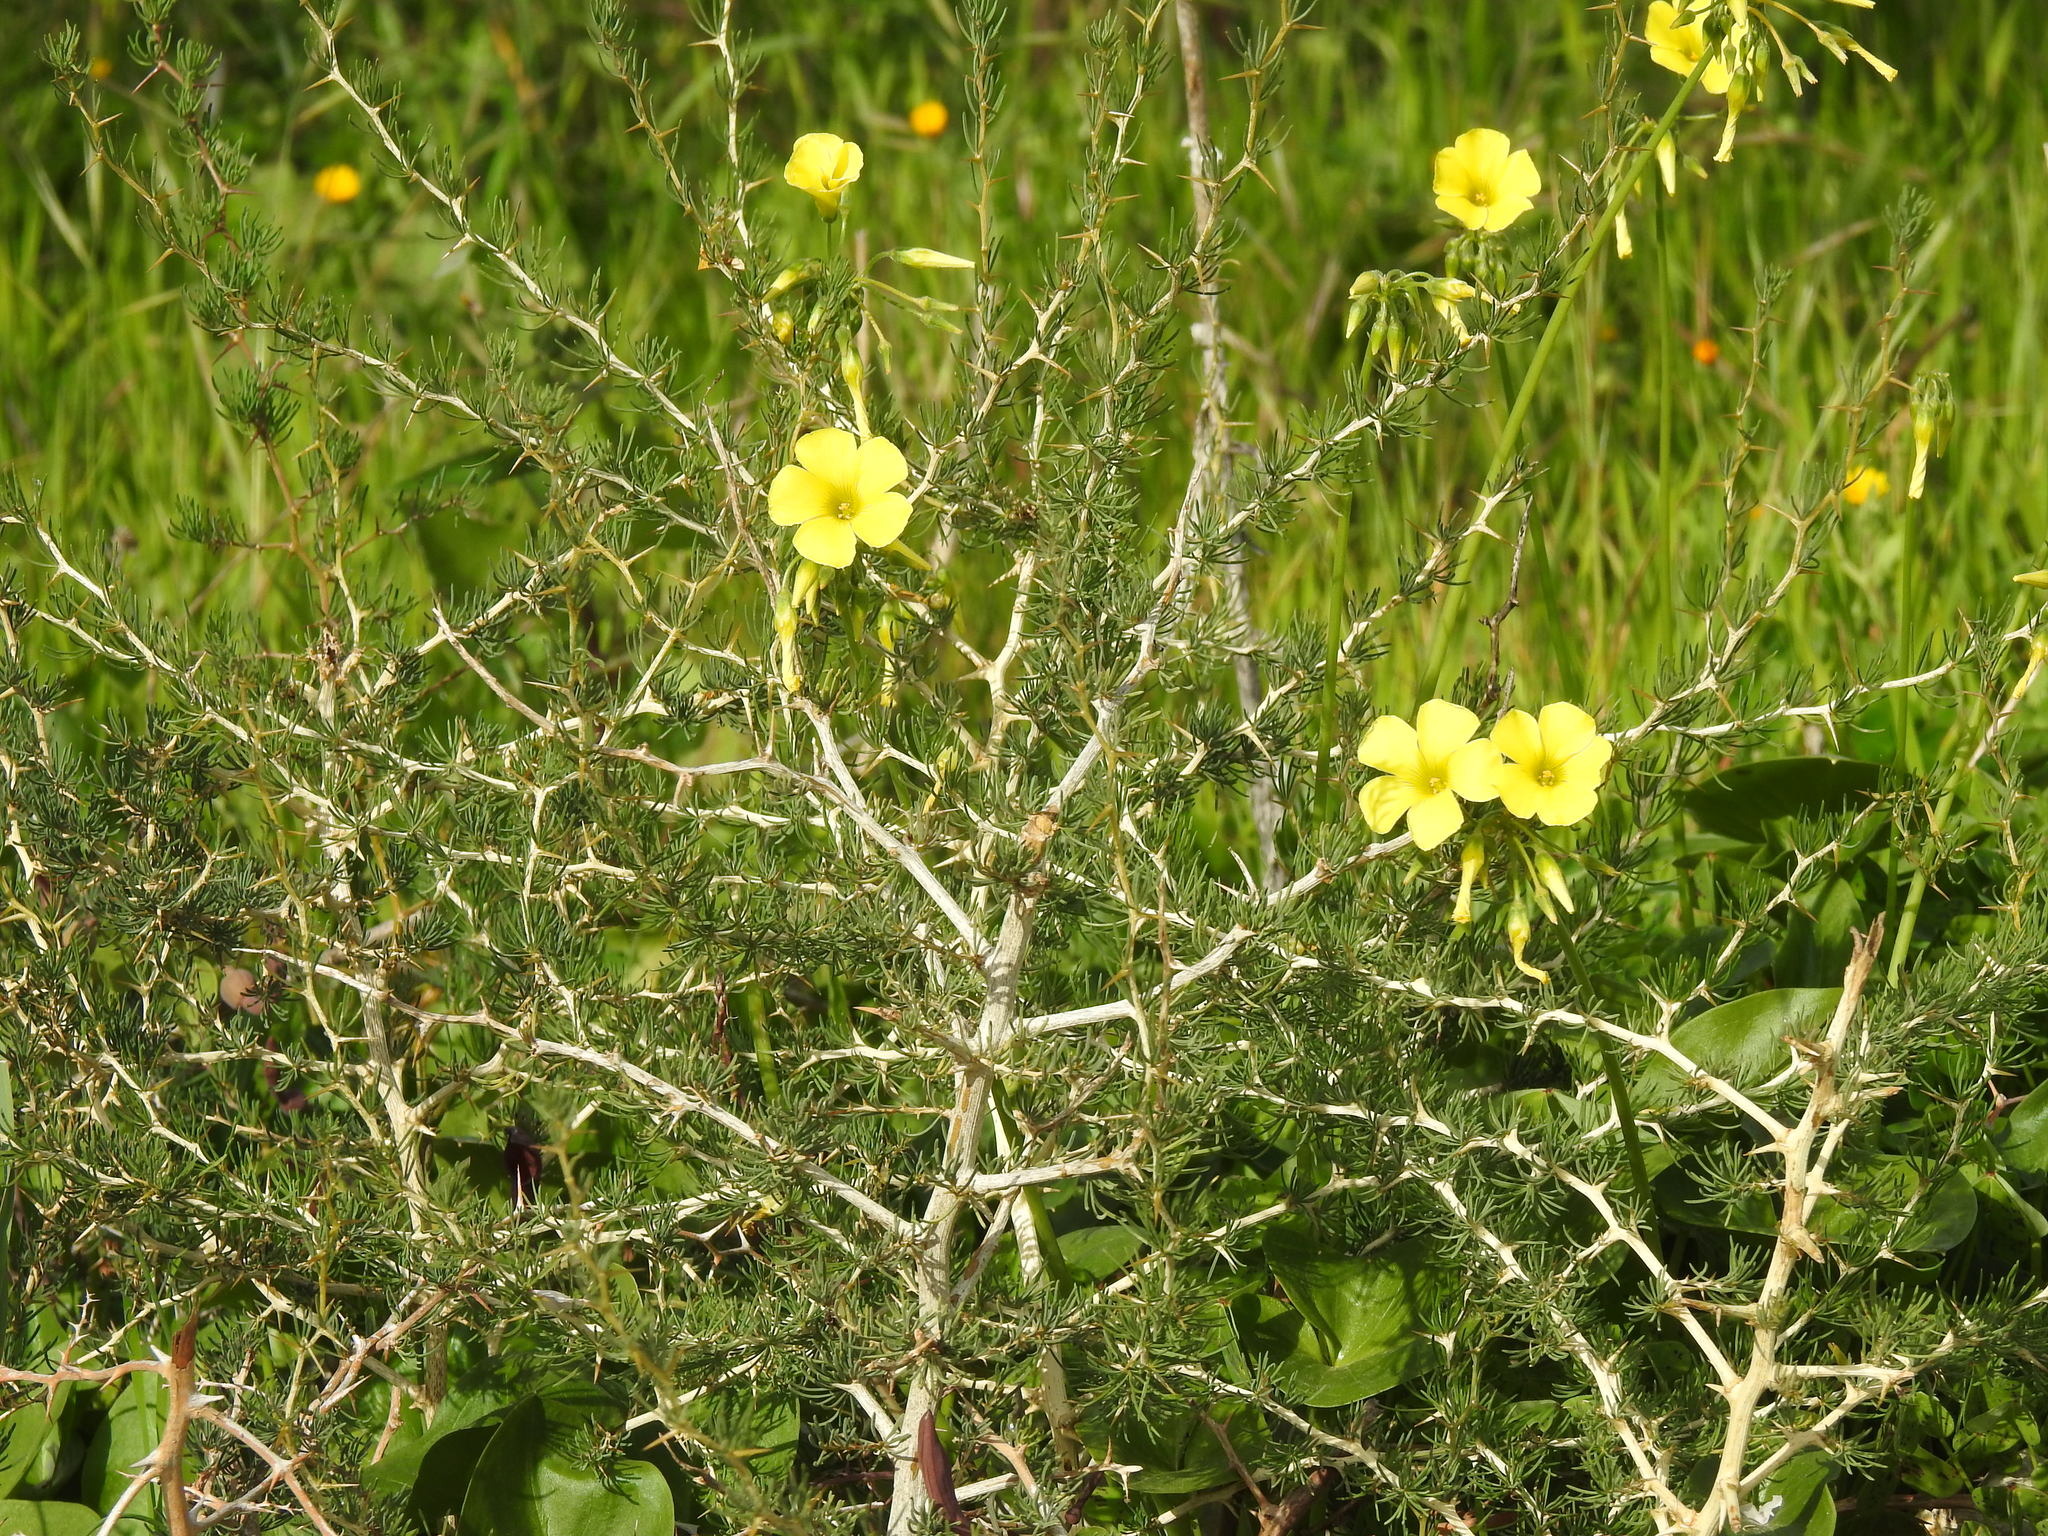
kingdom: Plantae
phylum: Tracheophyta
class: Liliopsida
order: Asparagales
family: Asparagaceae
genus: Asparagus
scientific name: Asparagus albus
